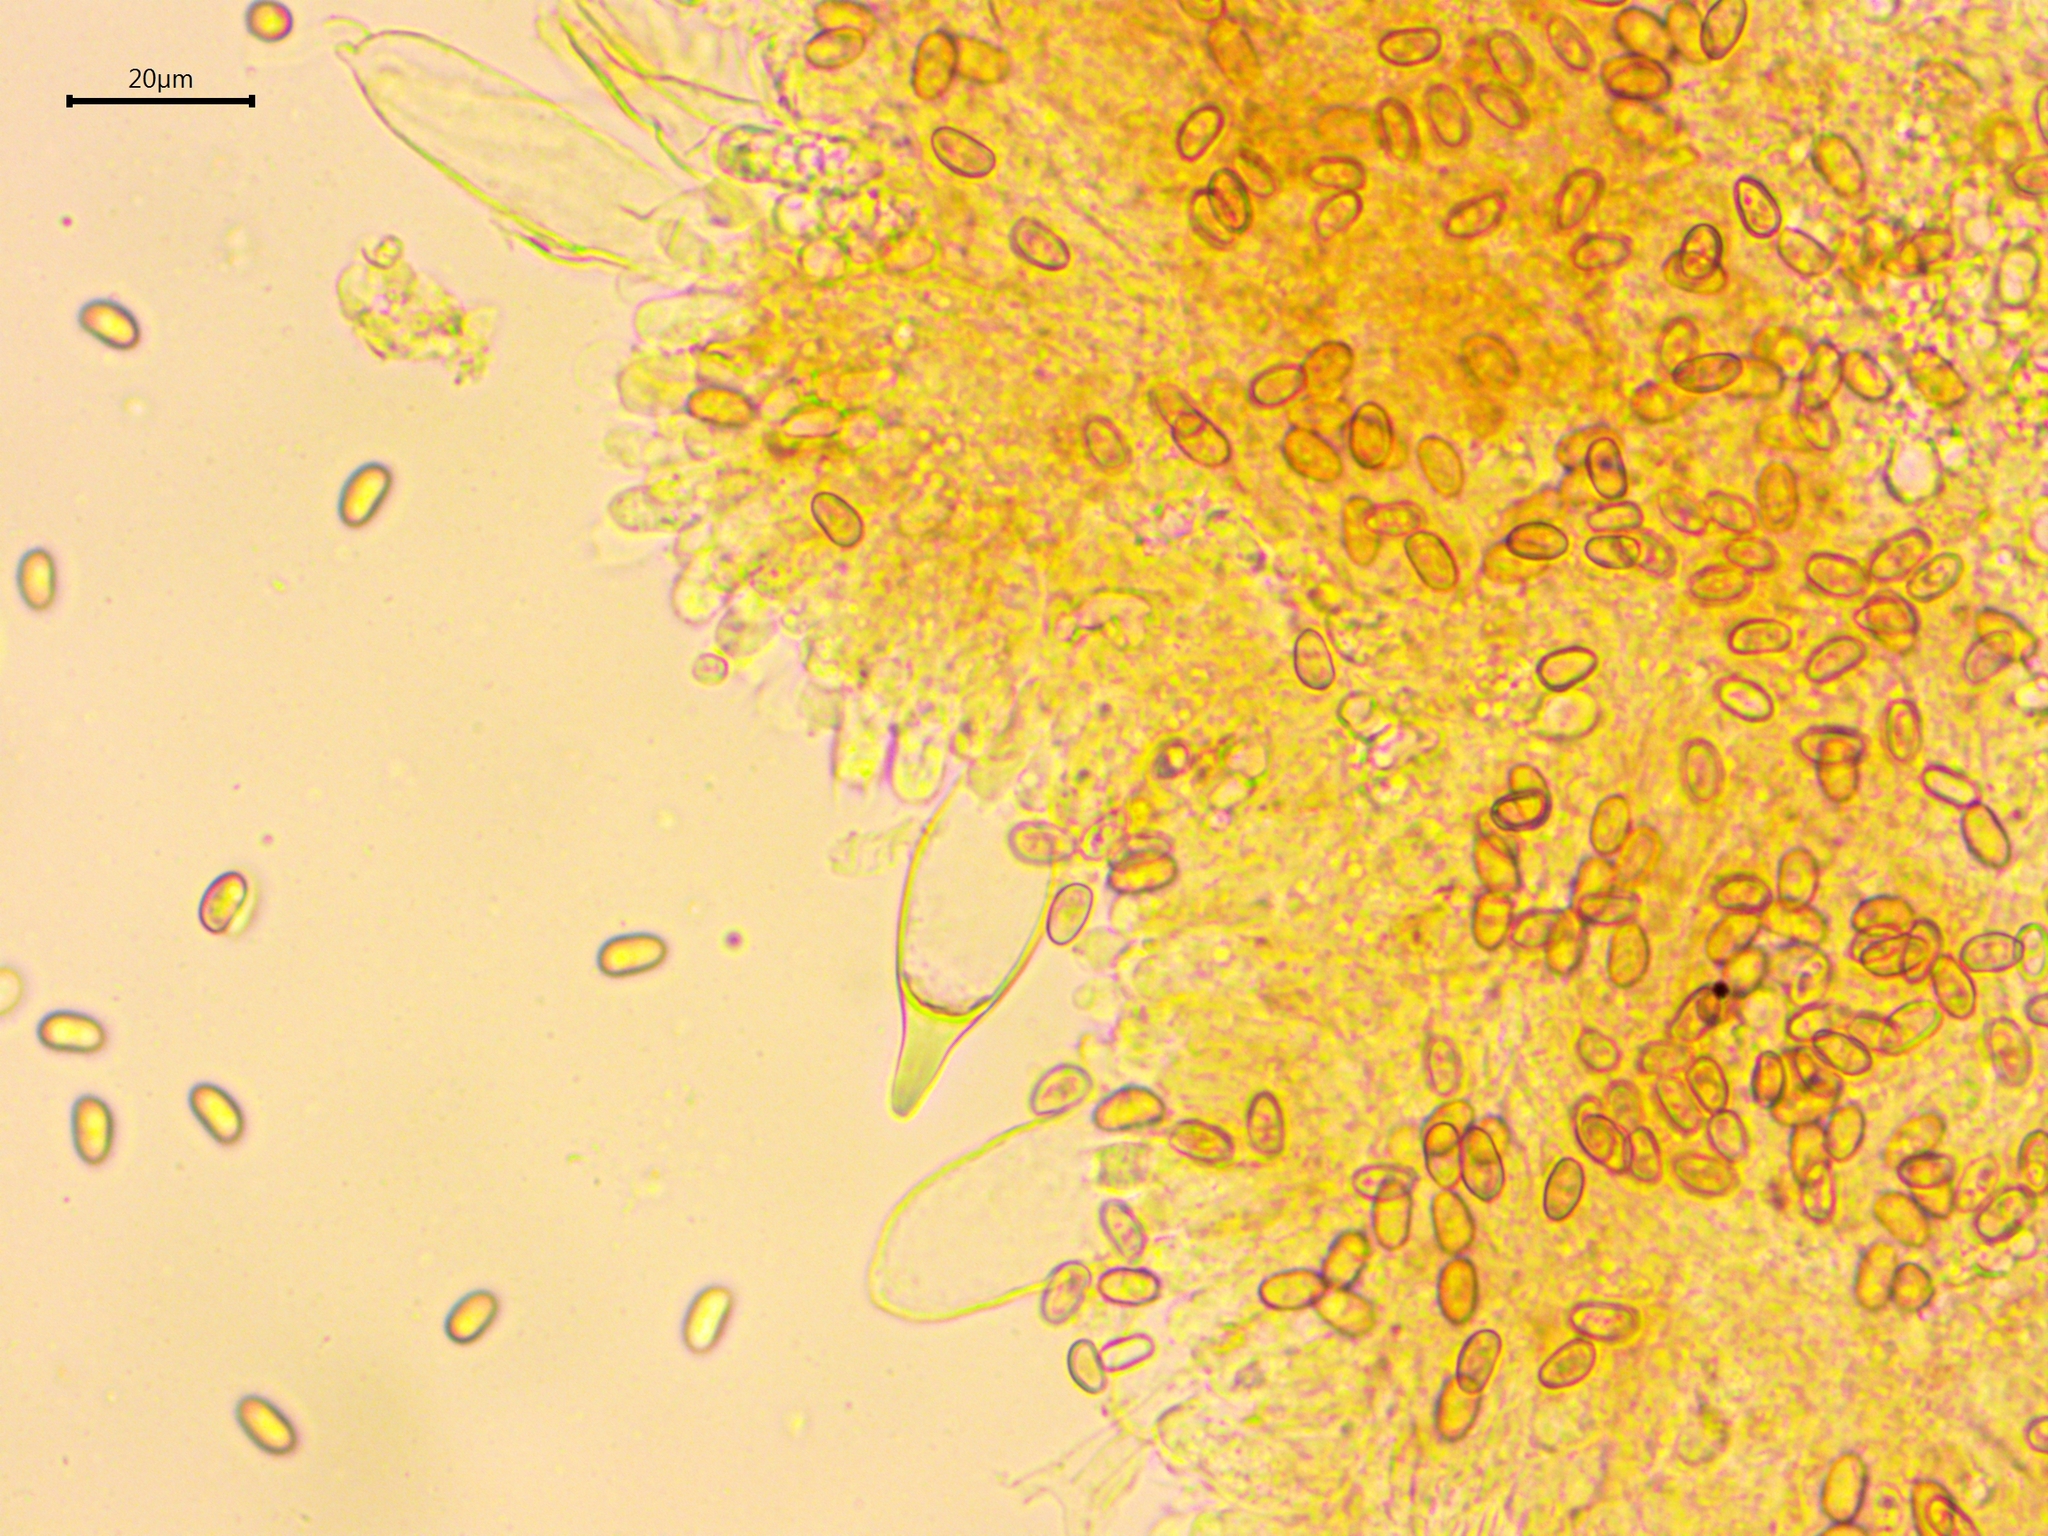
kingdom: Fungi
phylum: Basidiomycota
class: Agaricomycetes
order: Agaricales
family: Psathyrellaceae
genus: Typhrasa
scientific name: Typhrasa gossypina
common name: Wrinkled psathyrella
